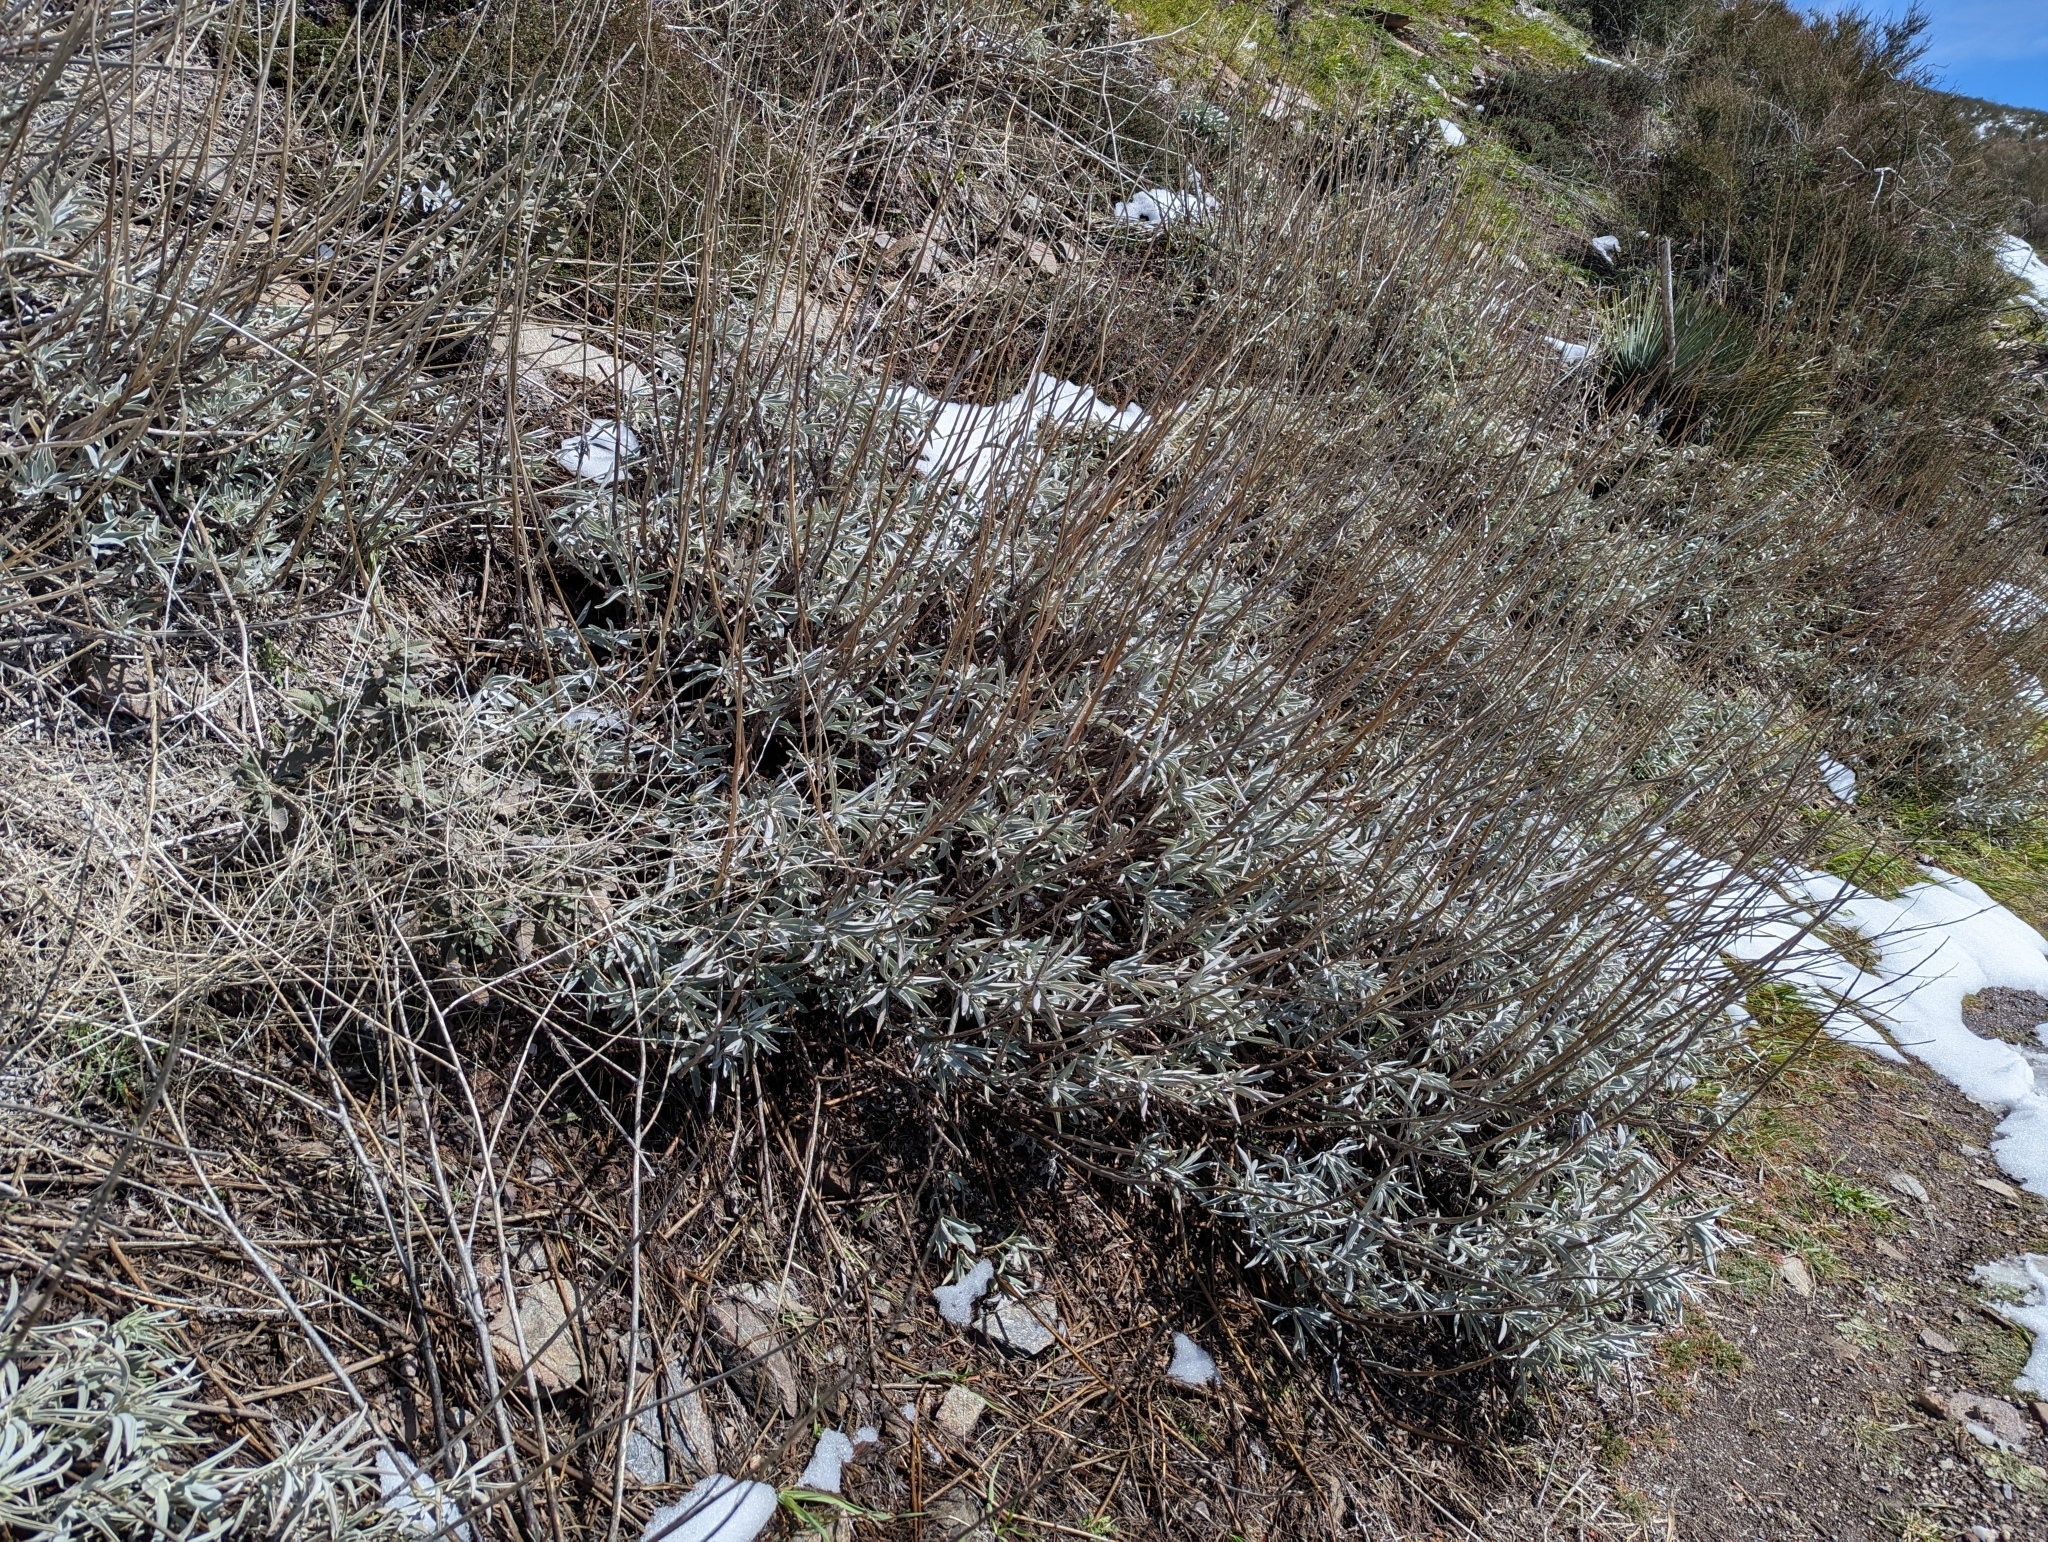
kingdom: Plantae
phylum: Tracheophyta
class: Magnoliopsida
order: Lamiales
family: Lamiaceae
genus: Salvia
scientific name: Salvia apiana
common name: White sage
